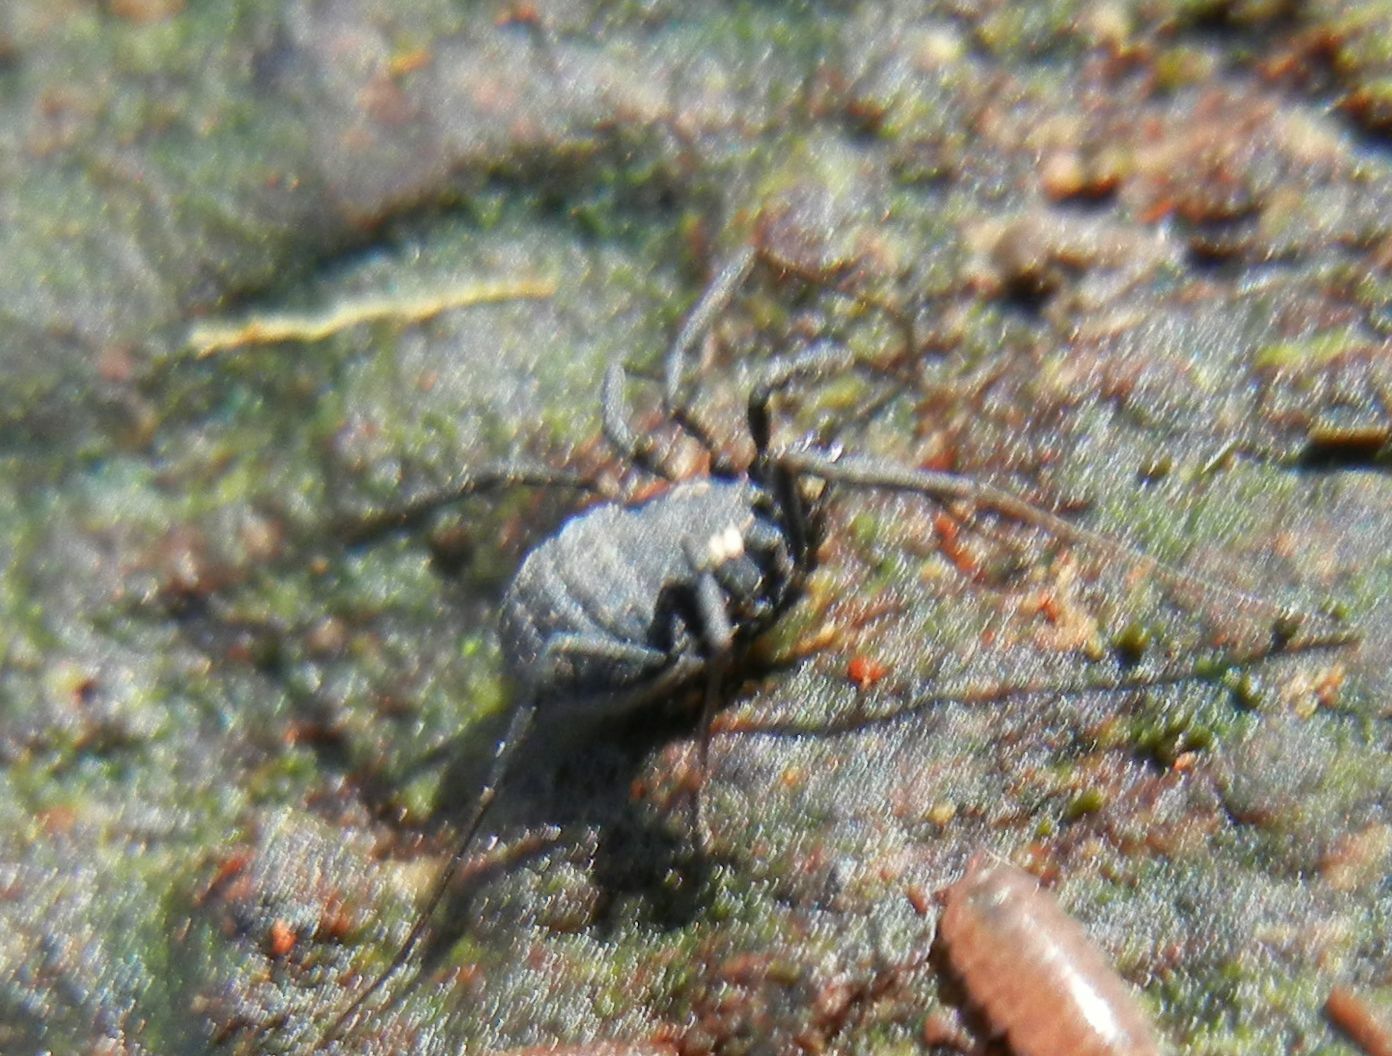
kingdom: Animalia
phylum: Arthropoda
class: Arachnida
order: Opiliones
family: Nemastomatidae
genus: Nemastoma
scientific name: Nemastoma bimaculatum
